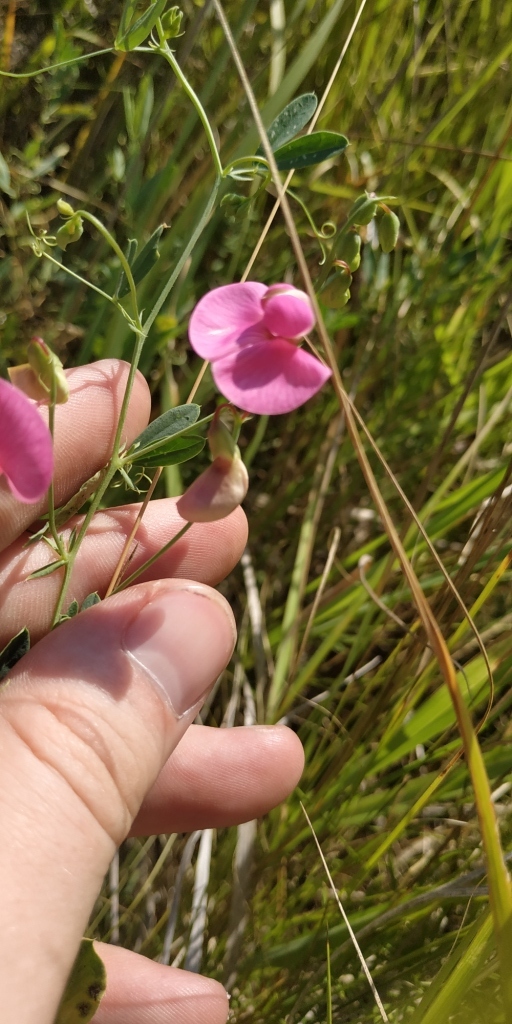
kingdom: Plantae
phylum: Tracheophyta
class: Magnoliopsida
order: Fabales
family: Fabaceae
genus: Lathyrus
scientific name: Lathyrus tuberosus
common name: Tuberous pea
